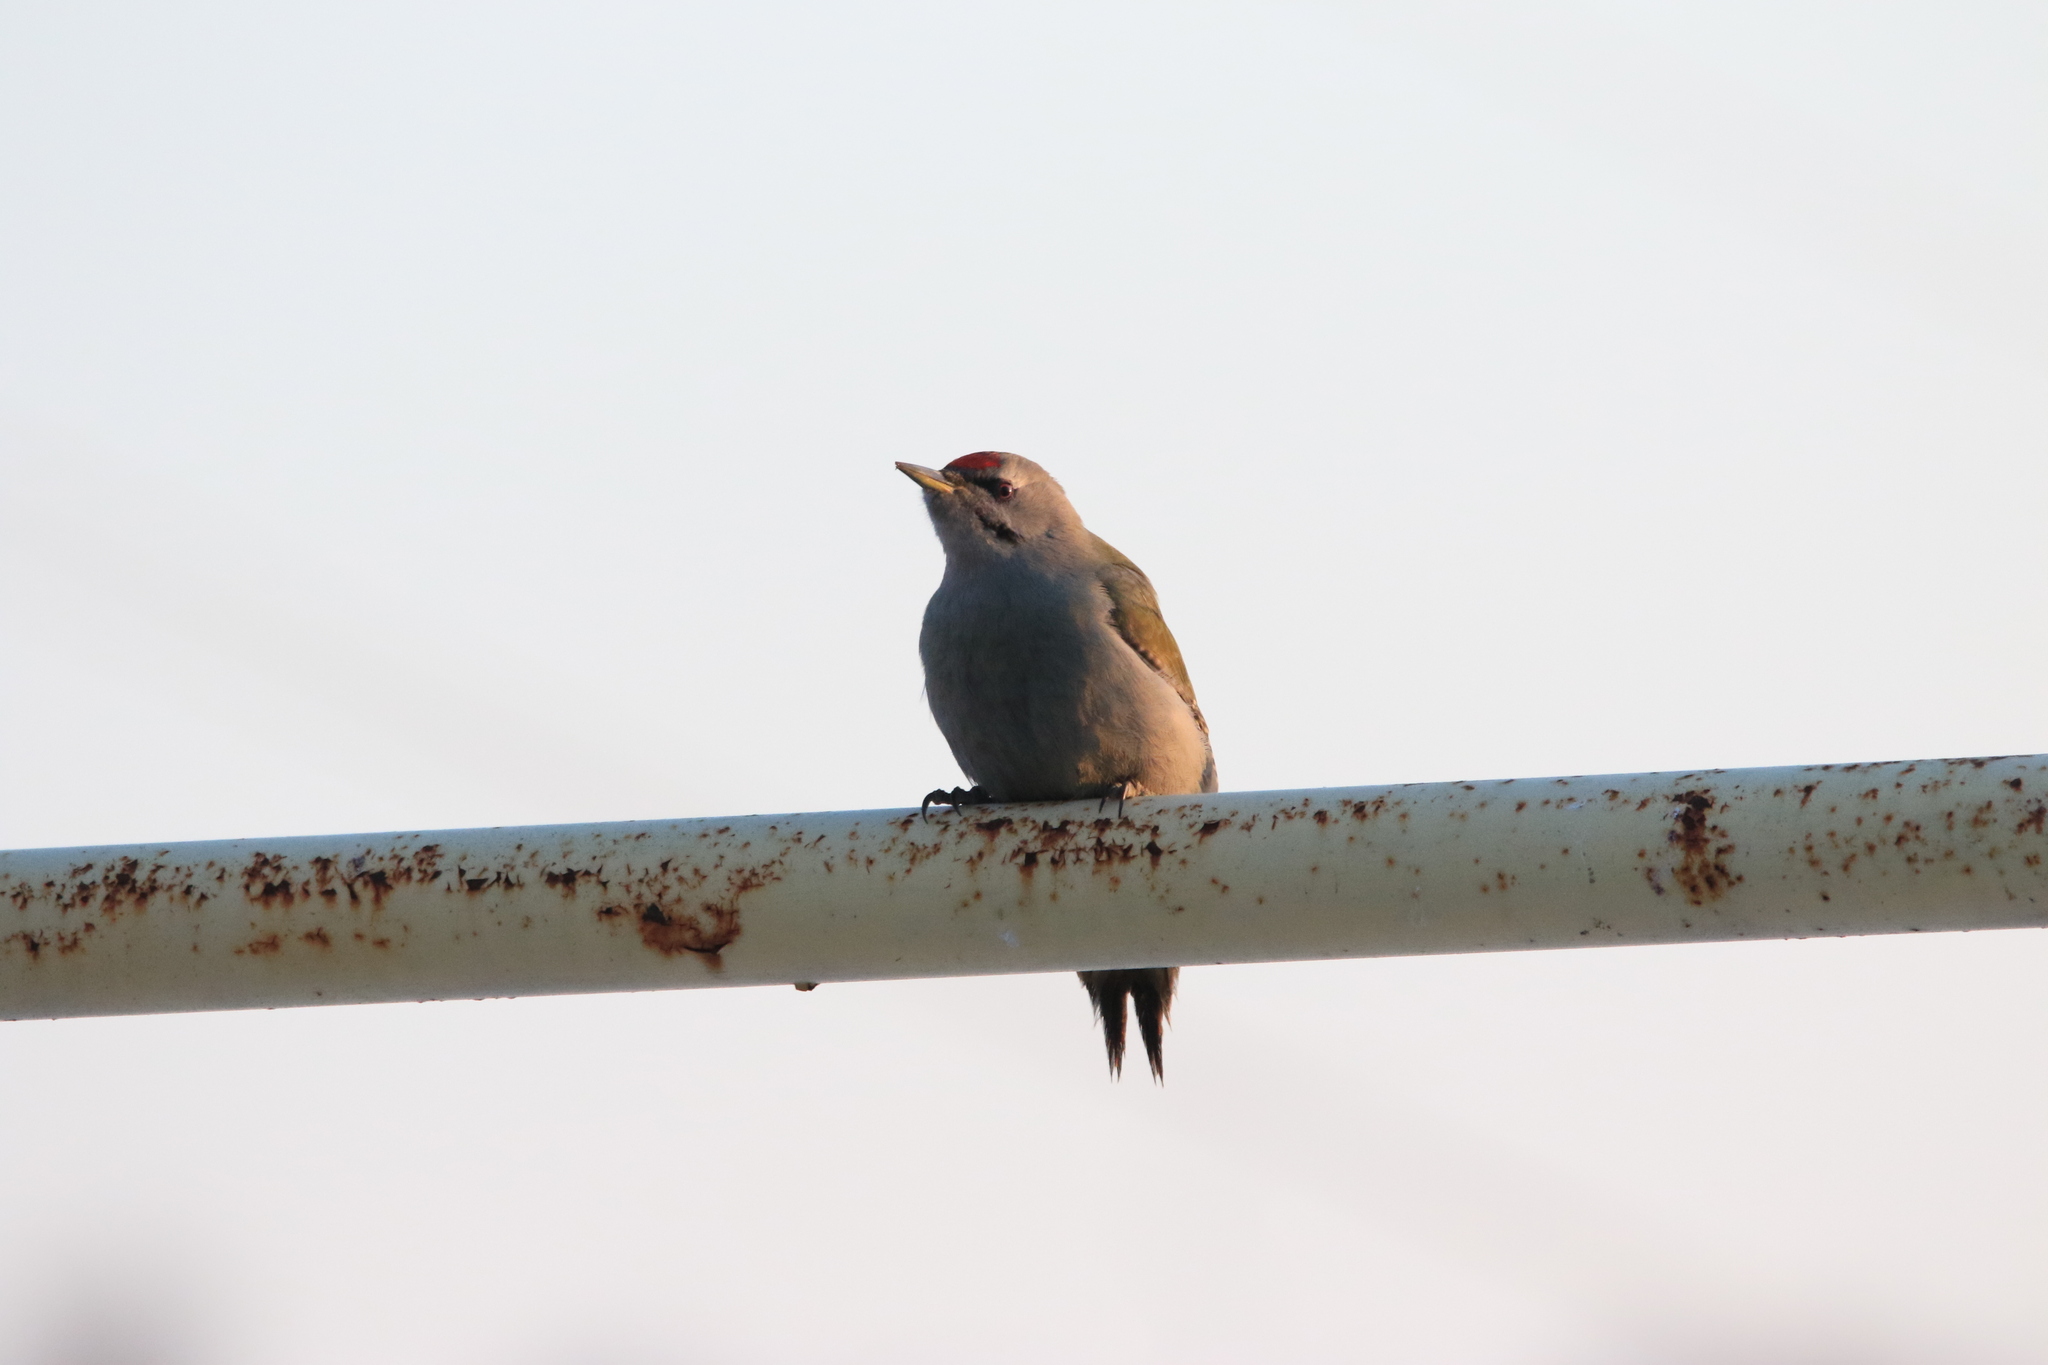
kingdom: Animalia
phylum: Chordata
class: Aves
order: Piciformes
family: Picidae
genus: Picus
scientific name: Picus canus
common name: Grey-headed woodpecker
